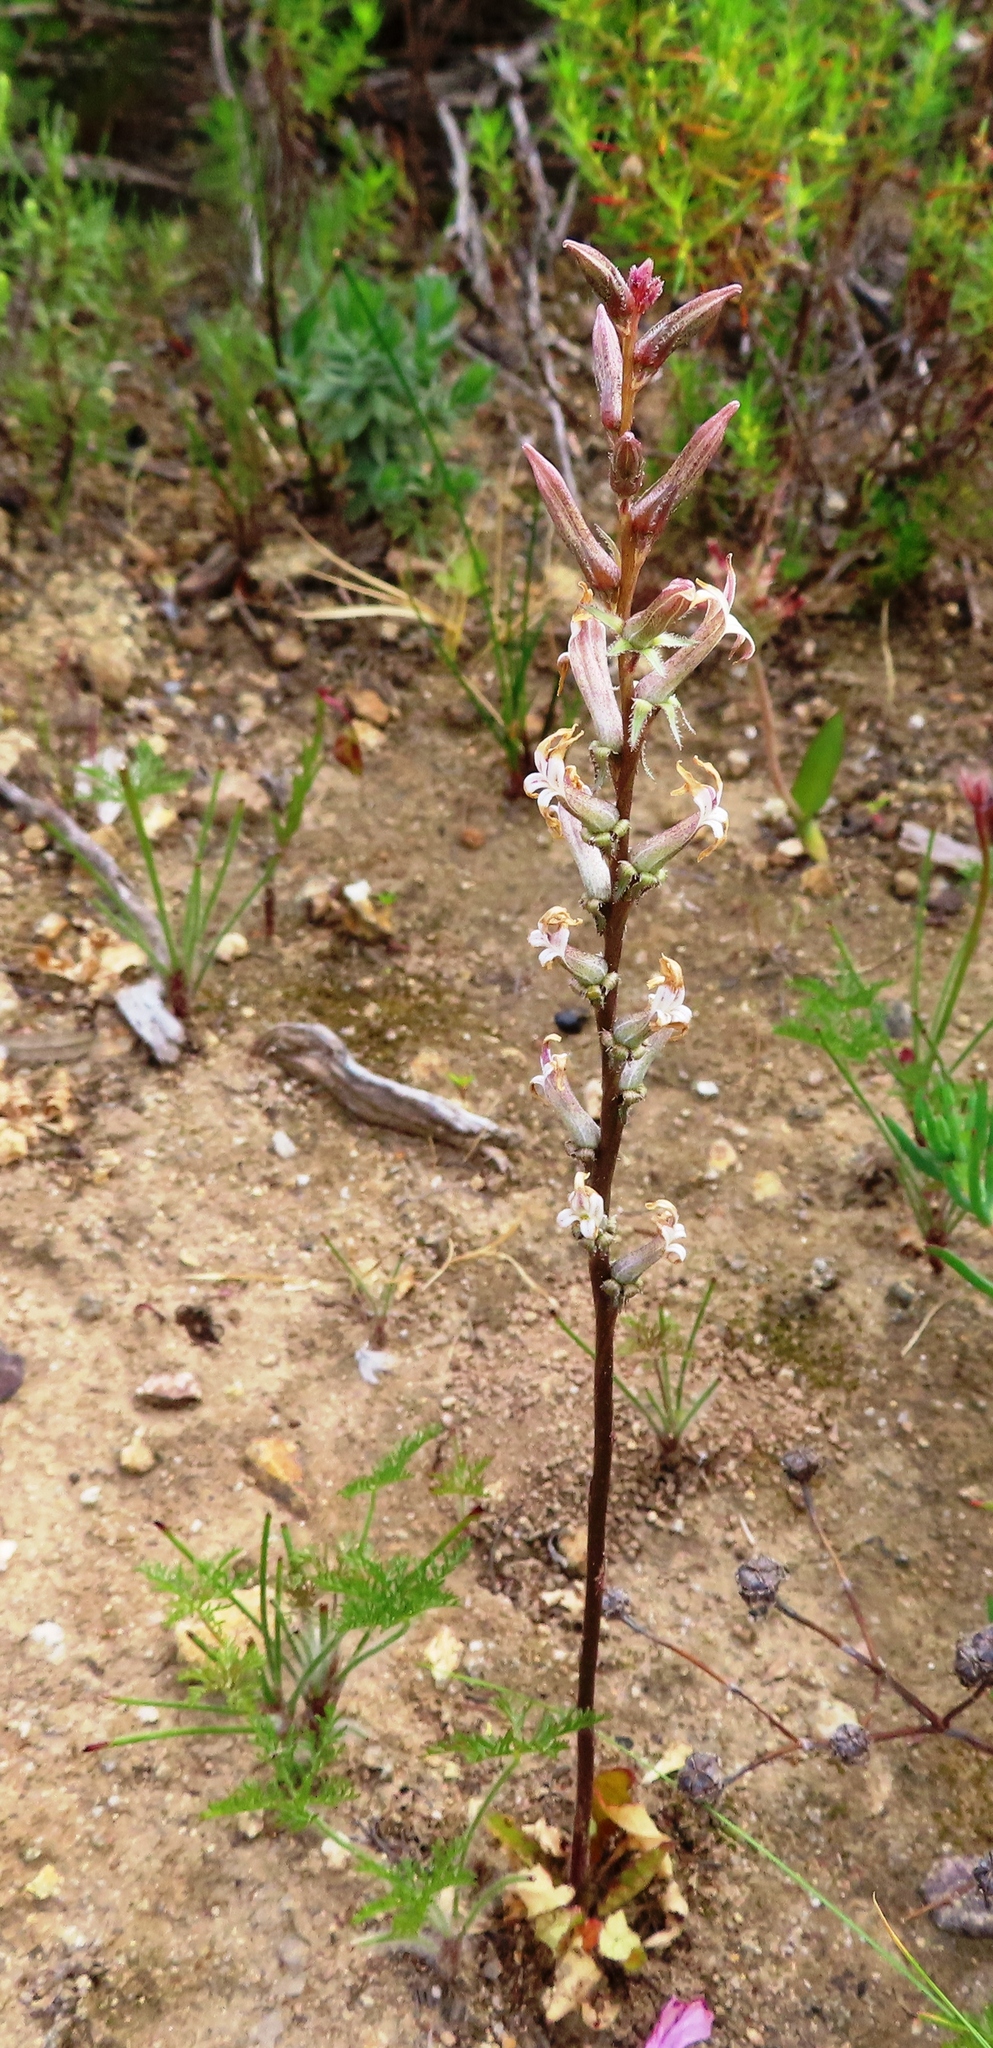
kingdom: Plantae
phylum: Tracheophyta
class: Magnoliopsida
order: Asterales
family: Campanulaceae
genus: Cyphia
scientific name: Cyphia bulbosa
